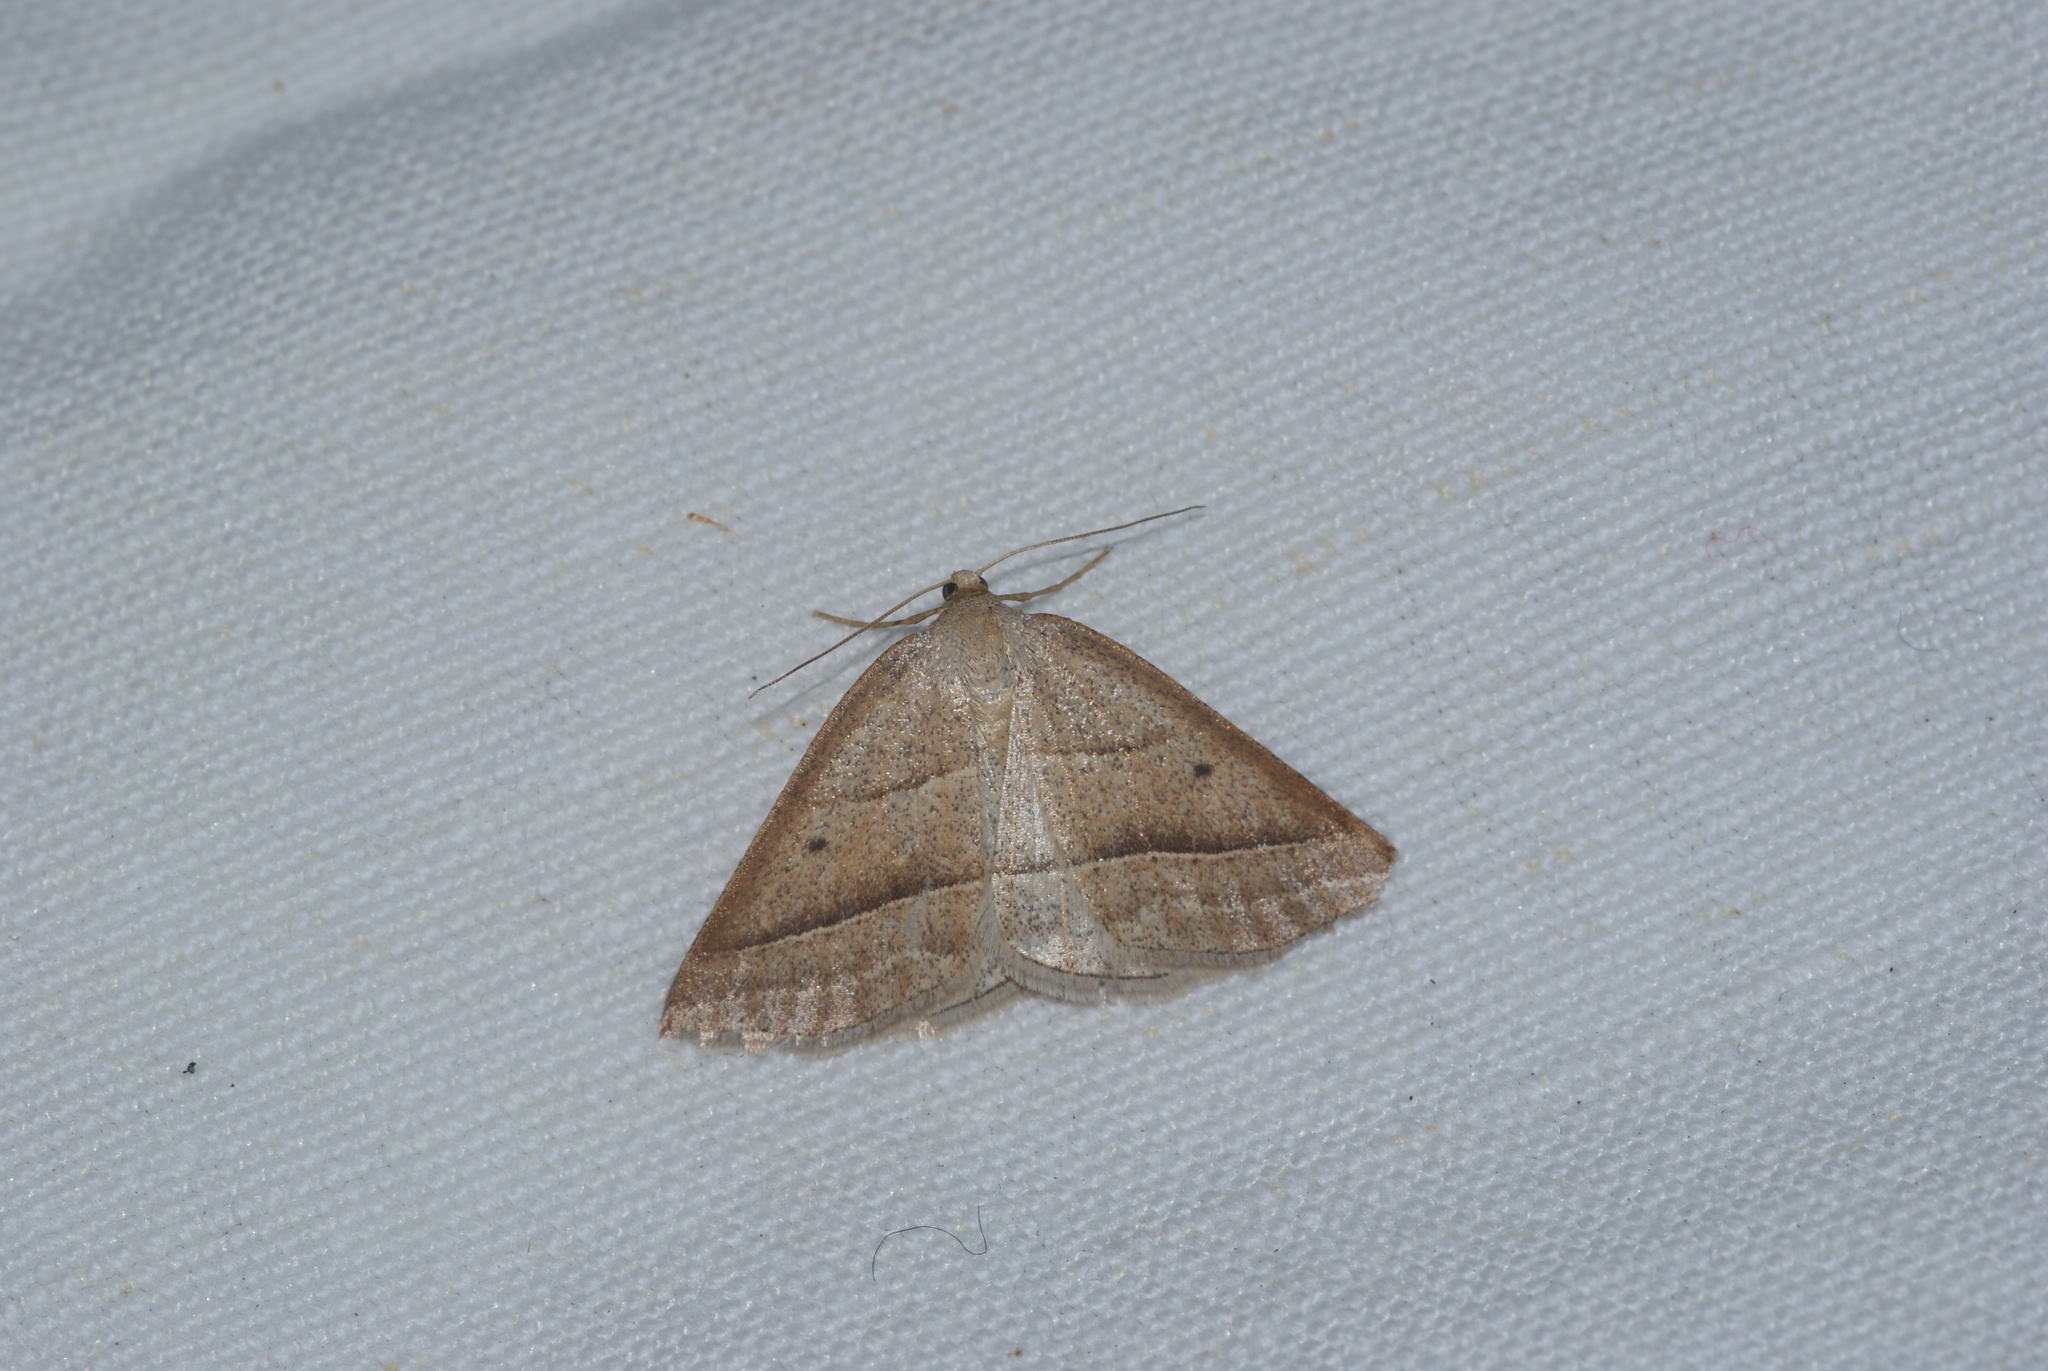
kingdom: Animalia
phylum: Arthropoda
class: Insecta
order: Lepidoptera
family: Pterophoridae
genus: Pterophorus
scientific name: Pterophorus Petrophora chlorosata
